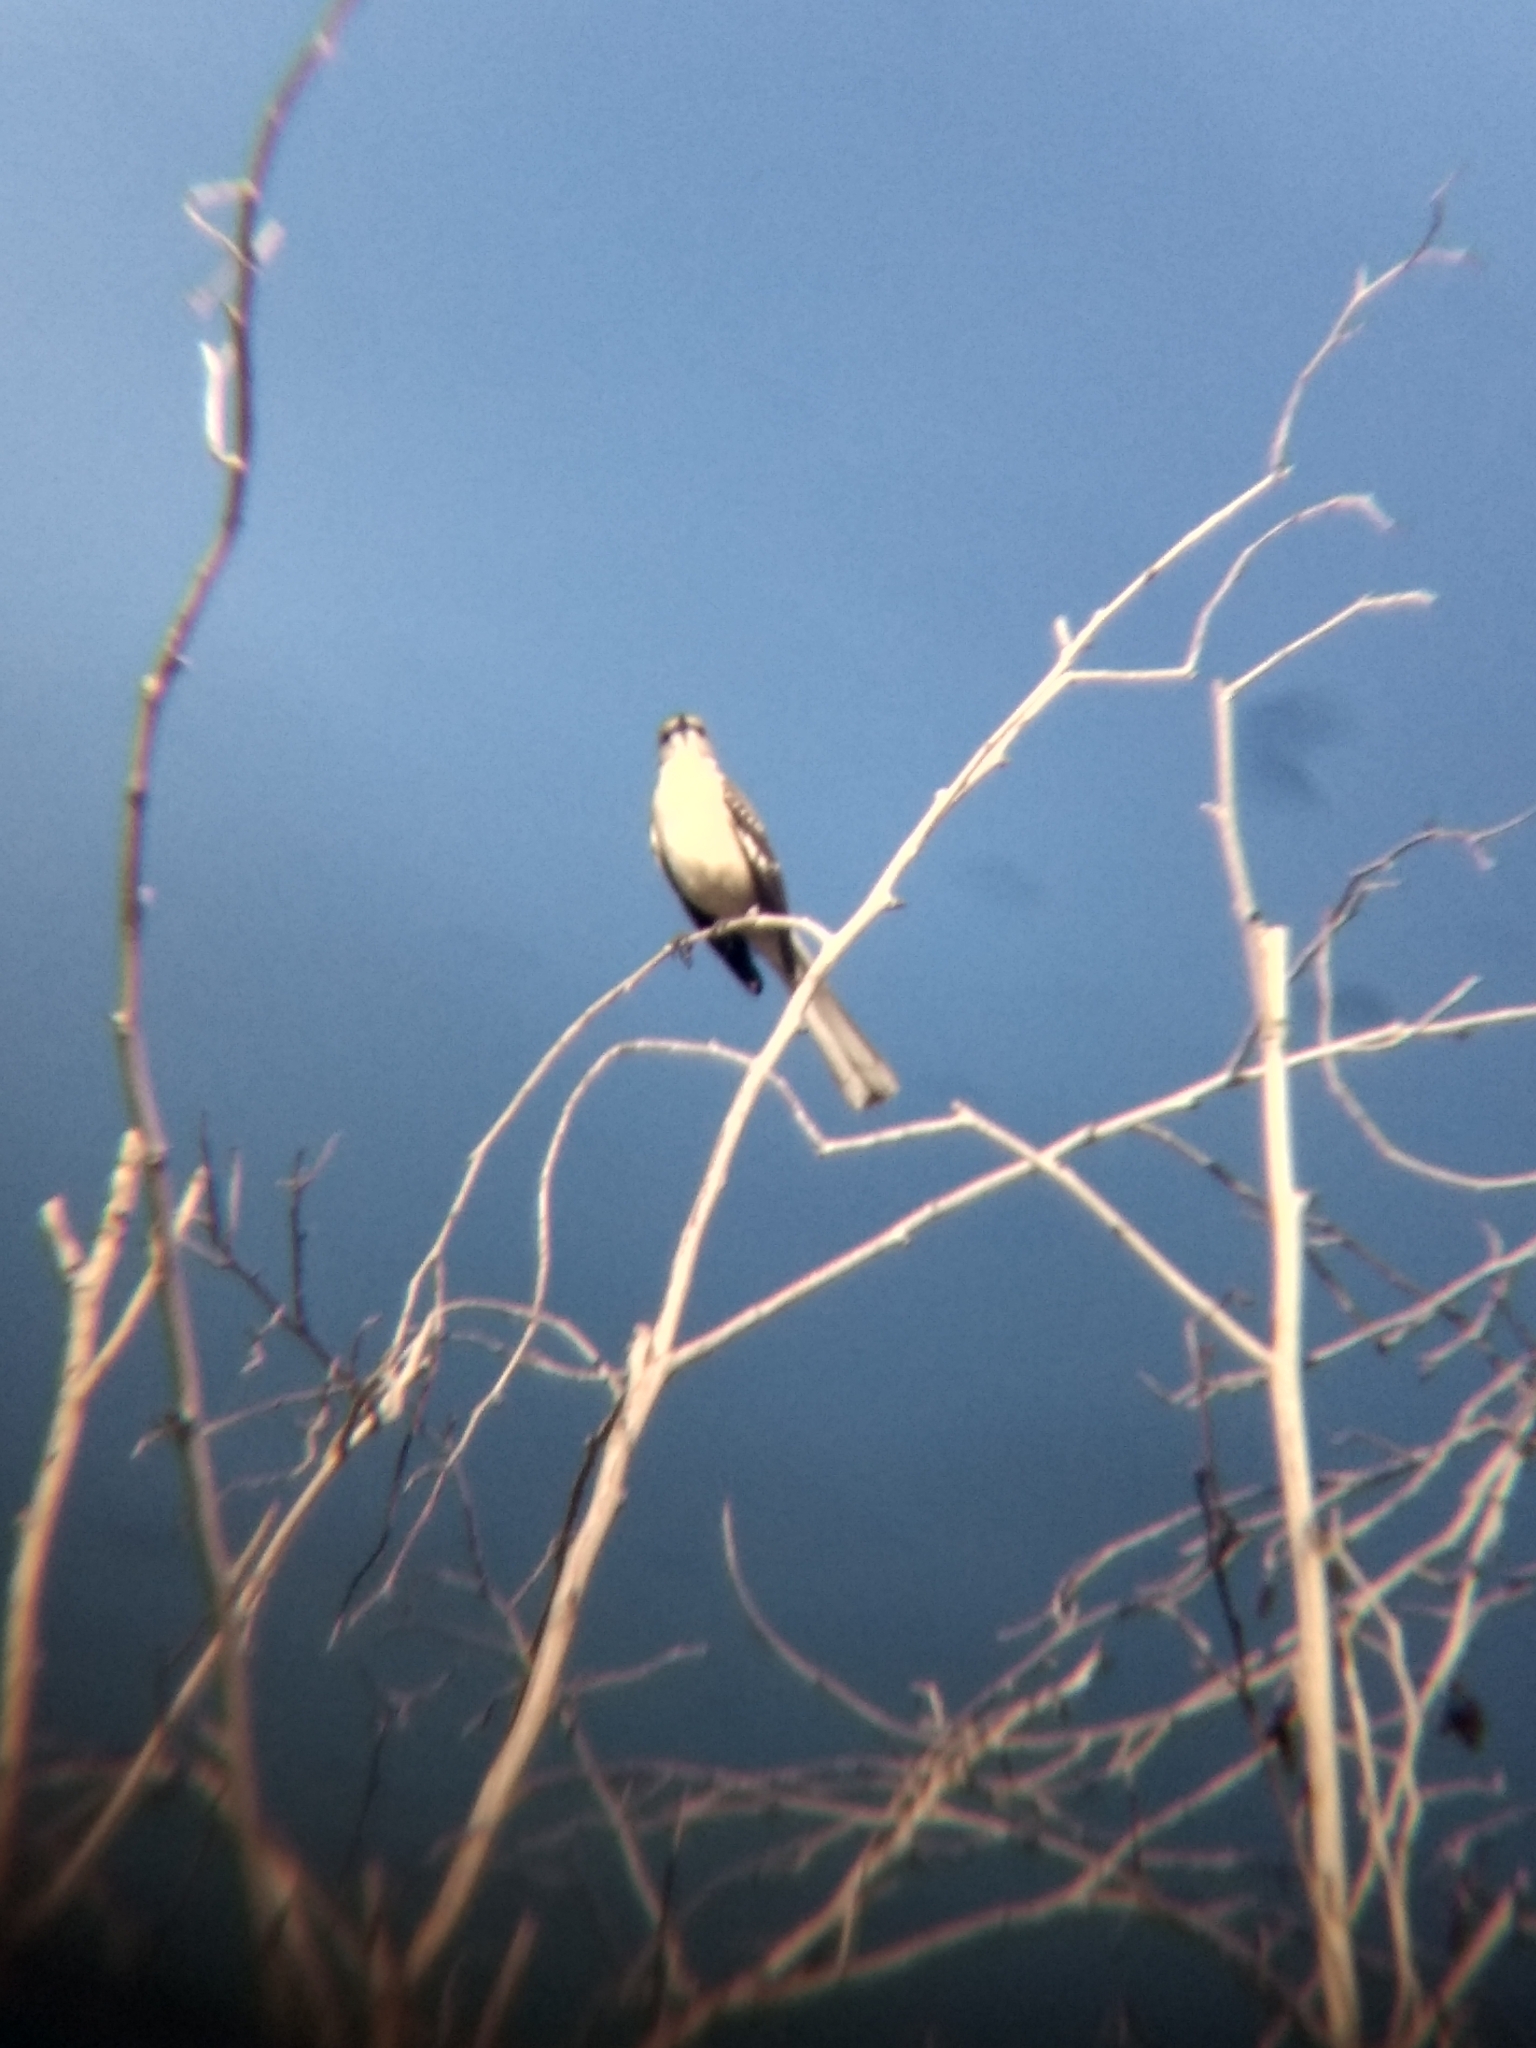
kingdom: Animalia
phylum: Chordata
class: Aves
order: Passeriformes
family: Mimidae
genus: Mimus
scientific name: Mimus polyglottos
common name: Northern mockingbird
